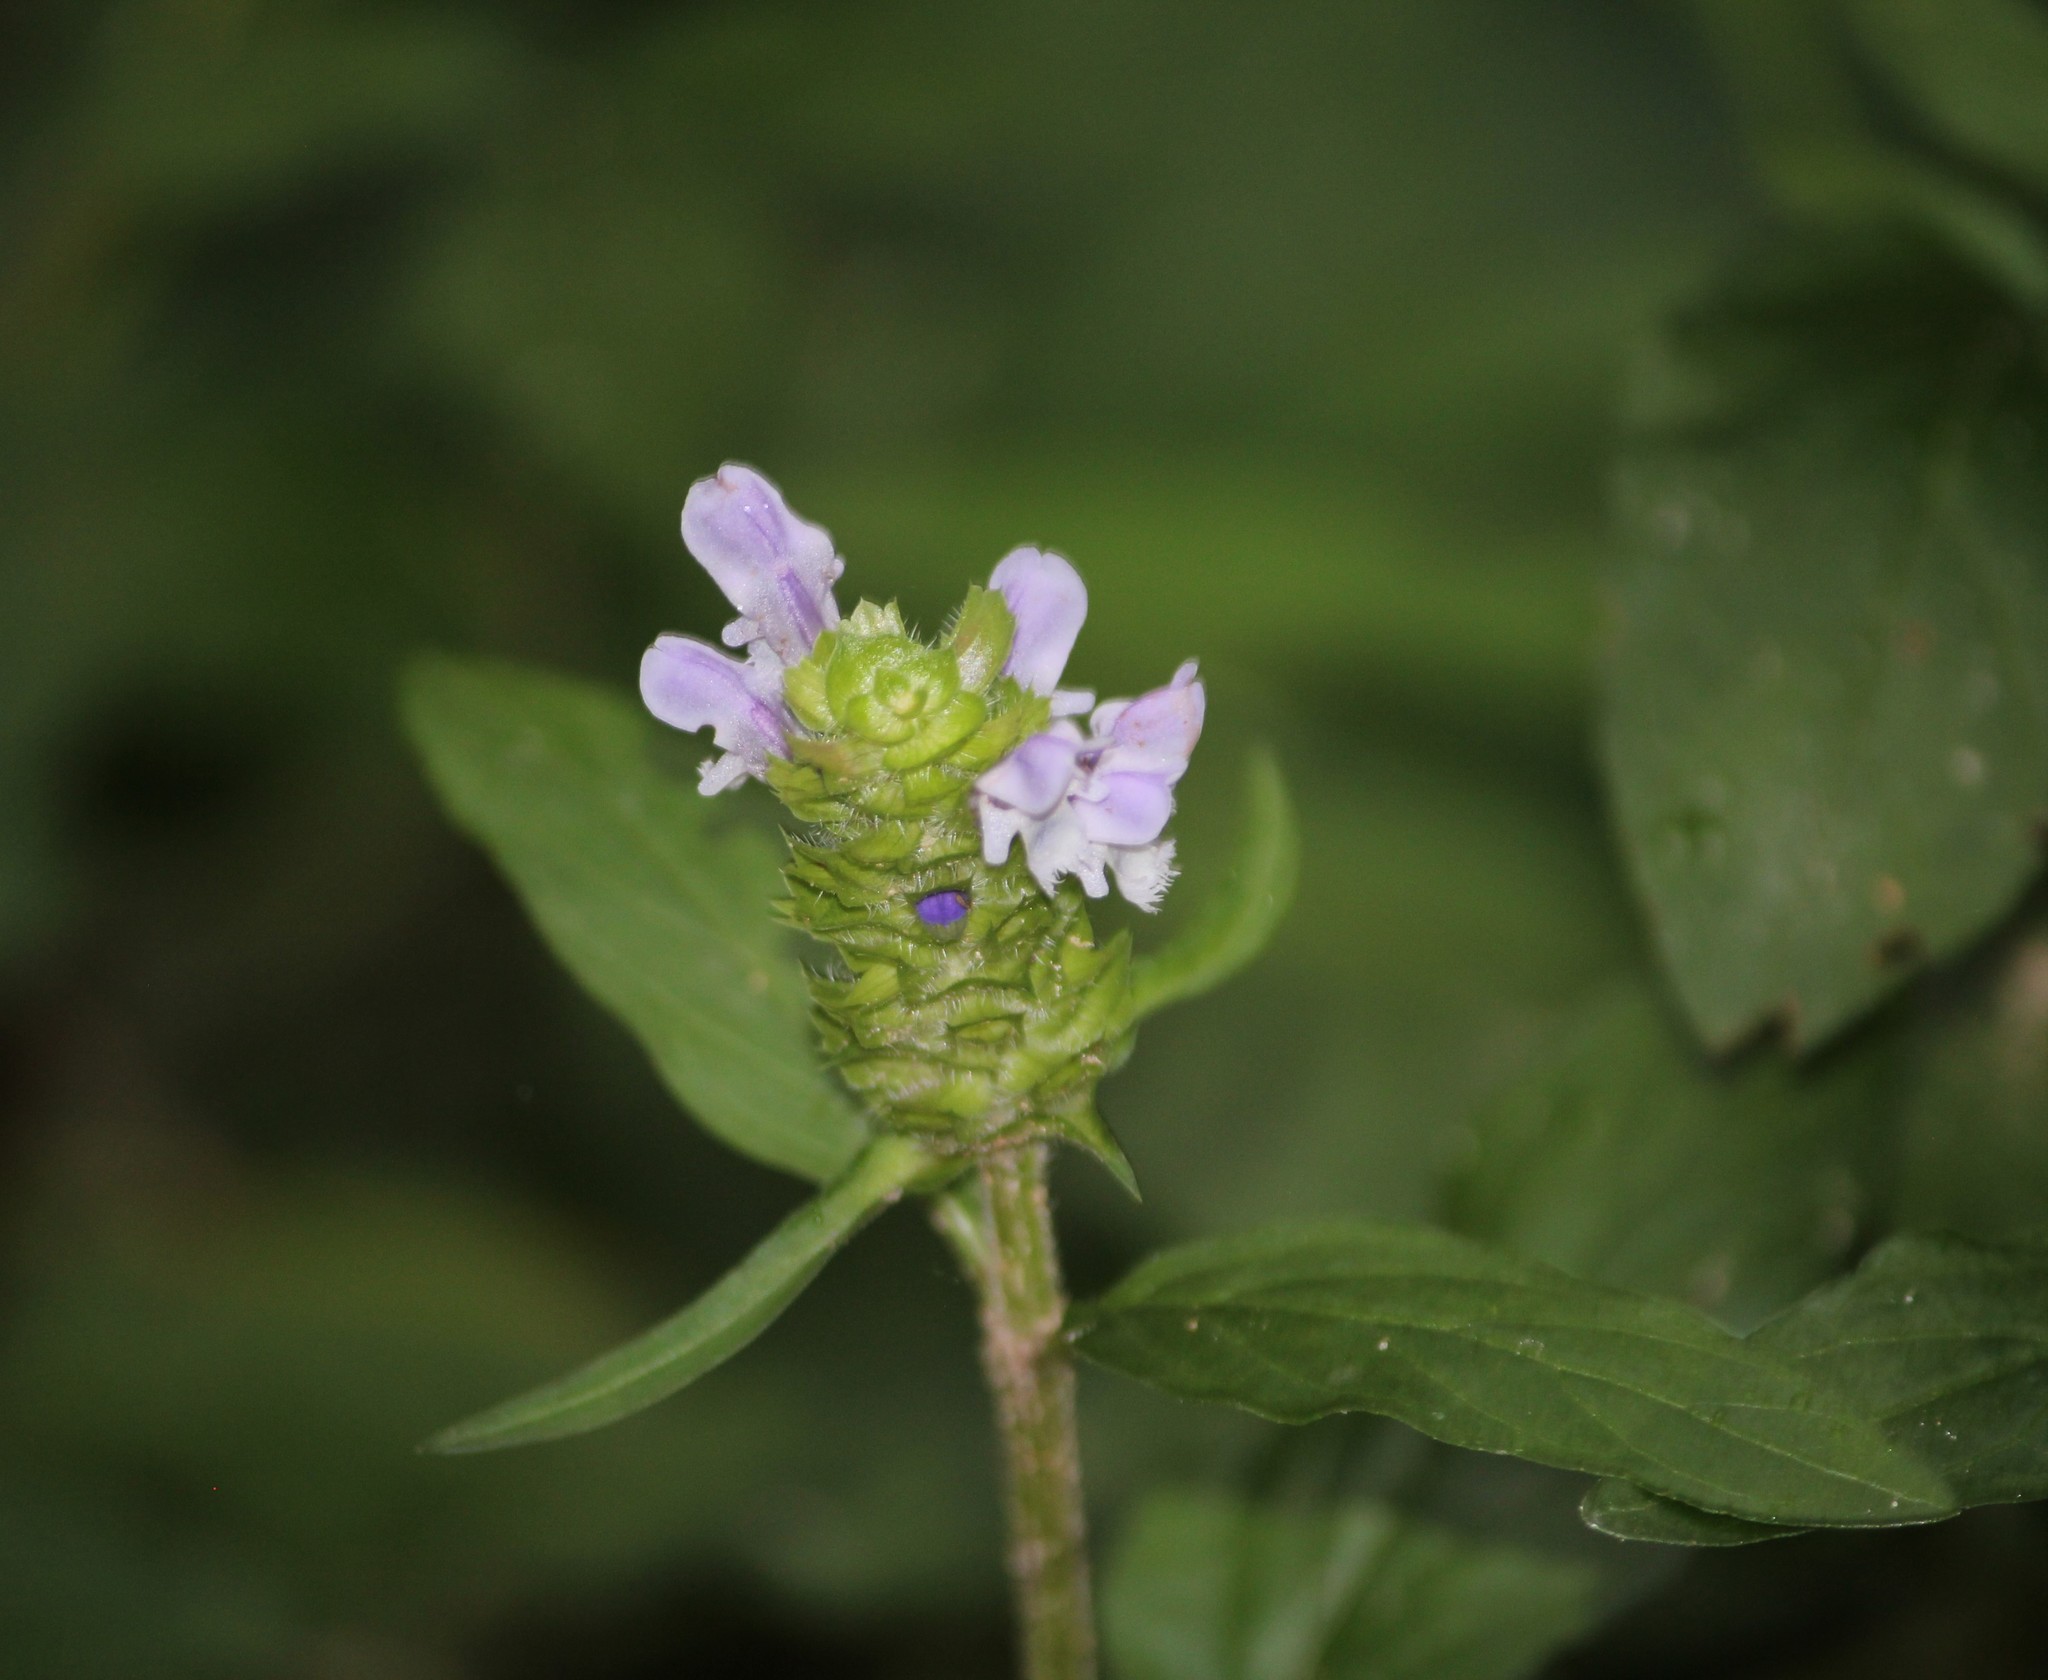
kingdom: Plantae
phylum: Tracheophyta
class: Magnoliopsida
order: Lamiales
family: Lamiaceae
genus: Prunella
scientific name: Prunella vulgaris
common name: Heal-all
